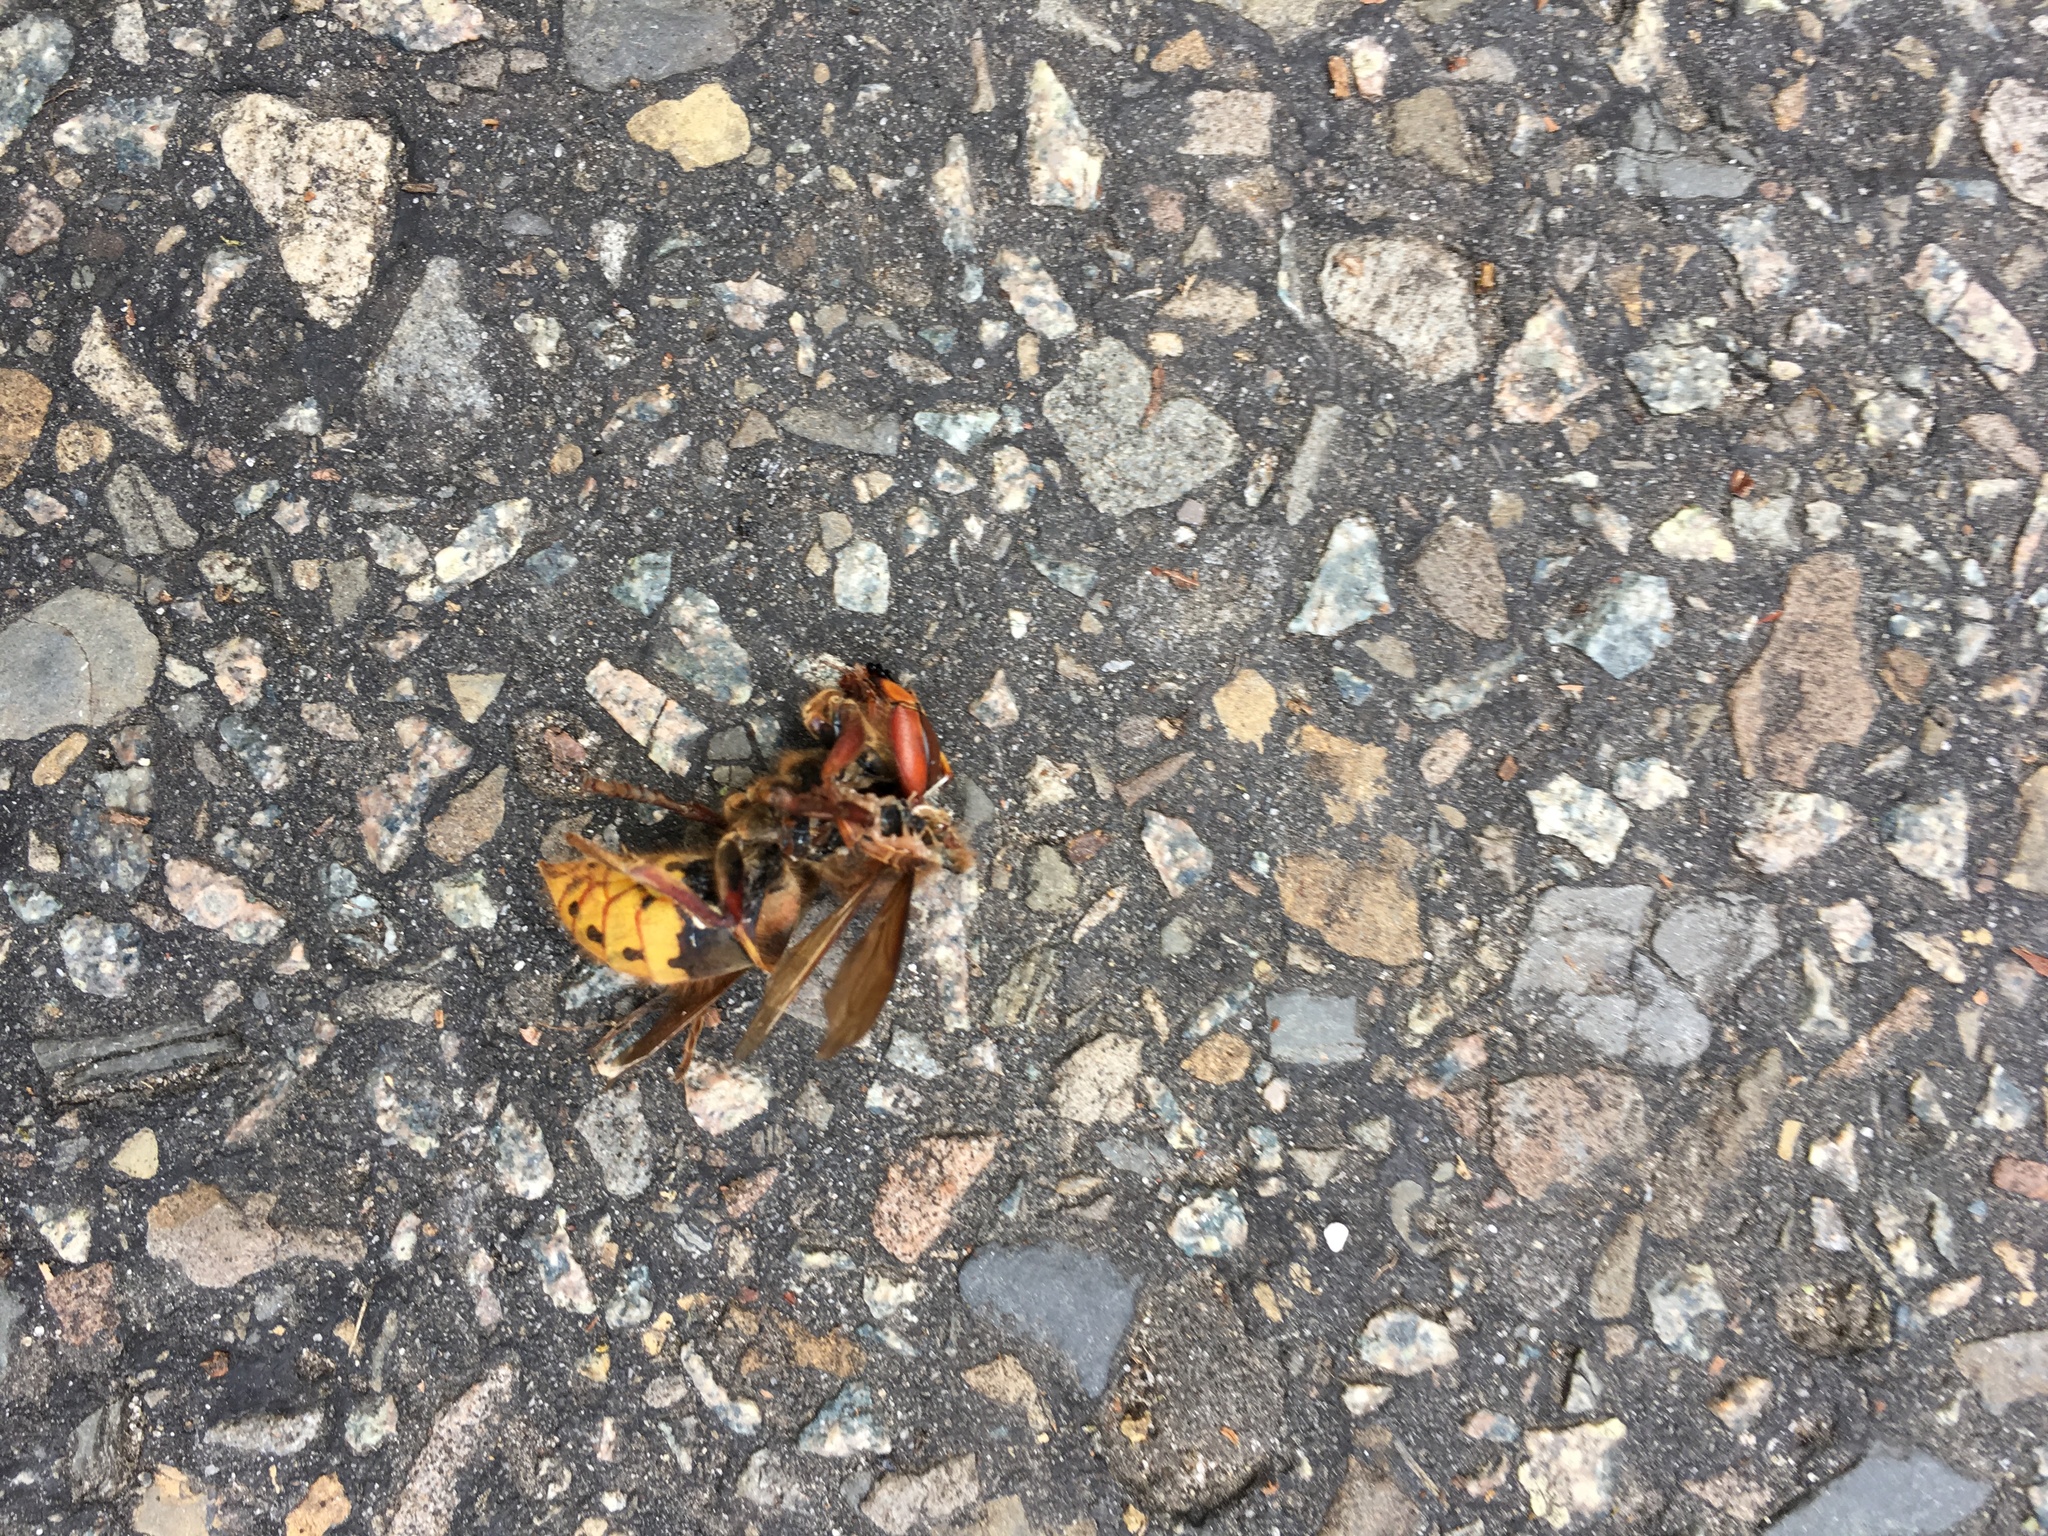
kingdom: Animalia
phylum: Arthropoda
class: Insecta
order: Hymenoptera
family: Vespidae
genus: Vespa
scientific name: Vespa crabro
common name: Hornet
